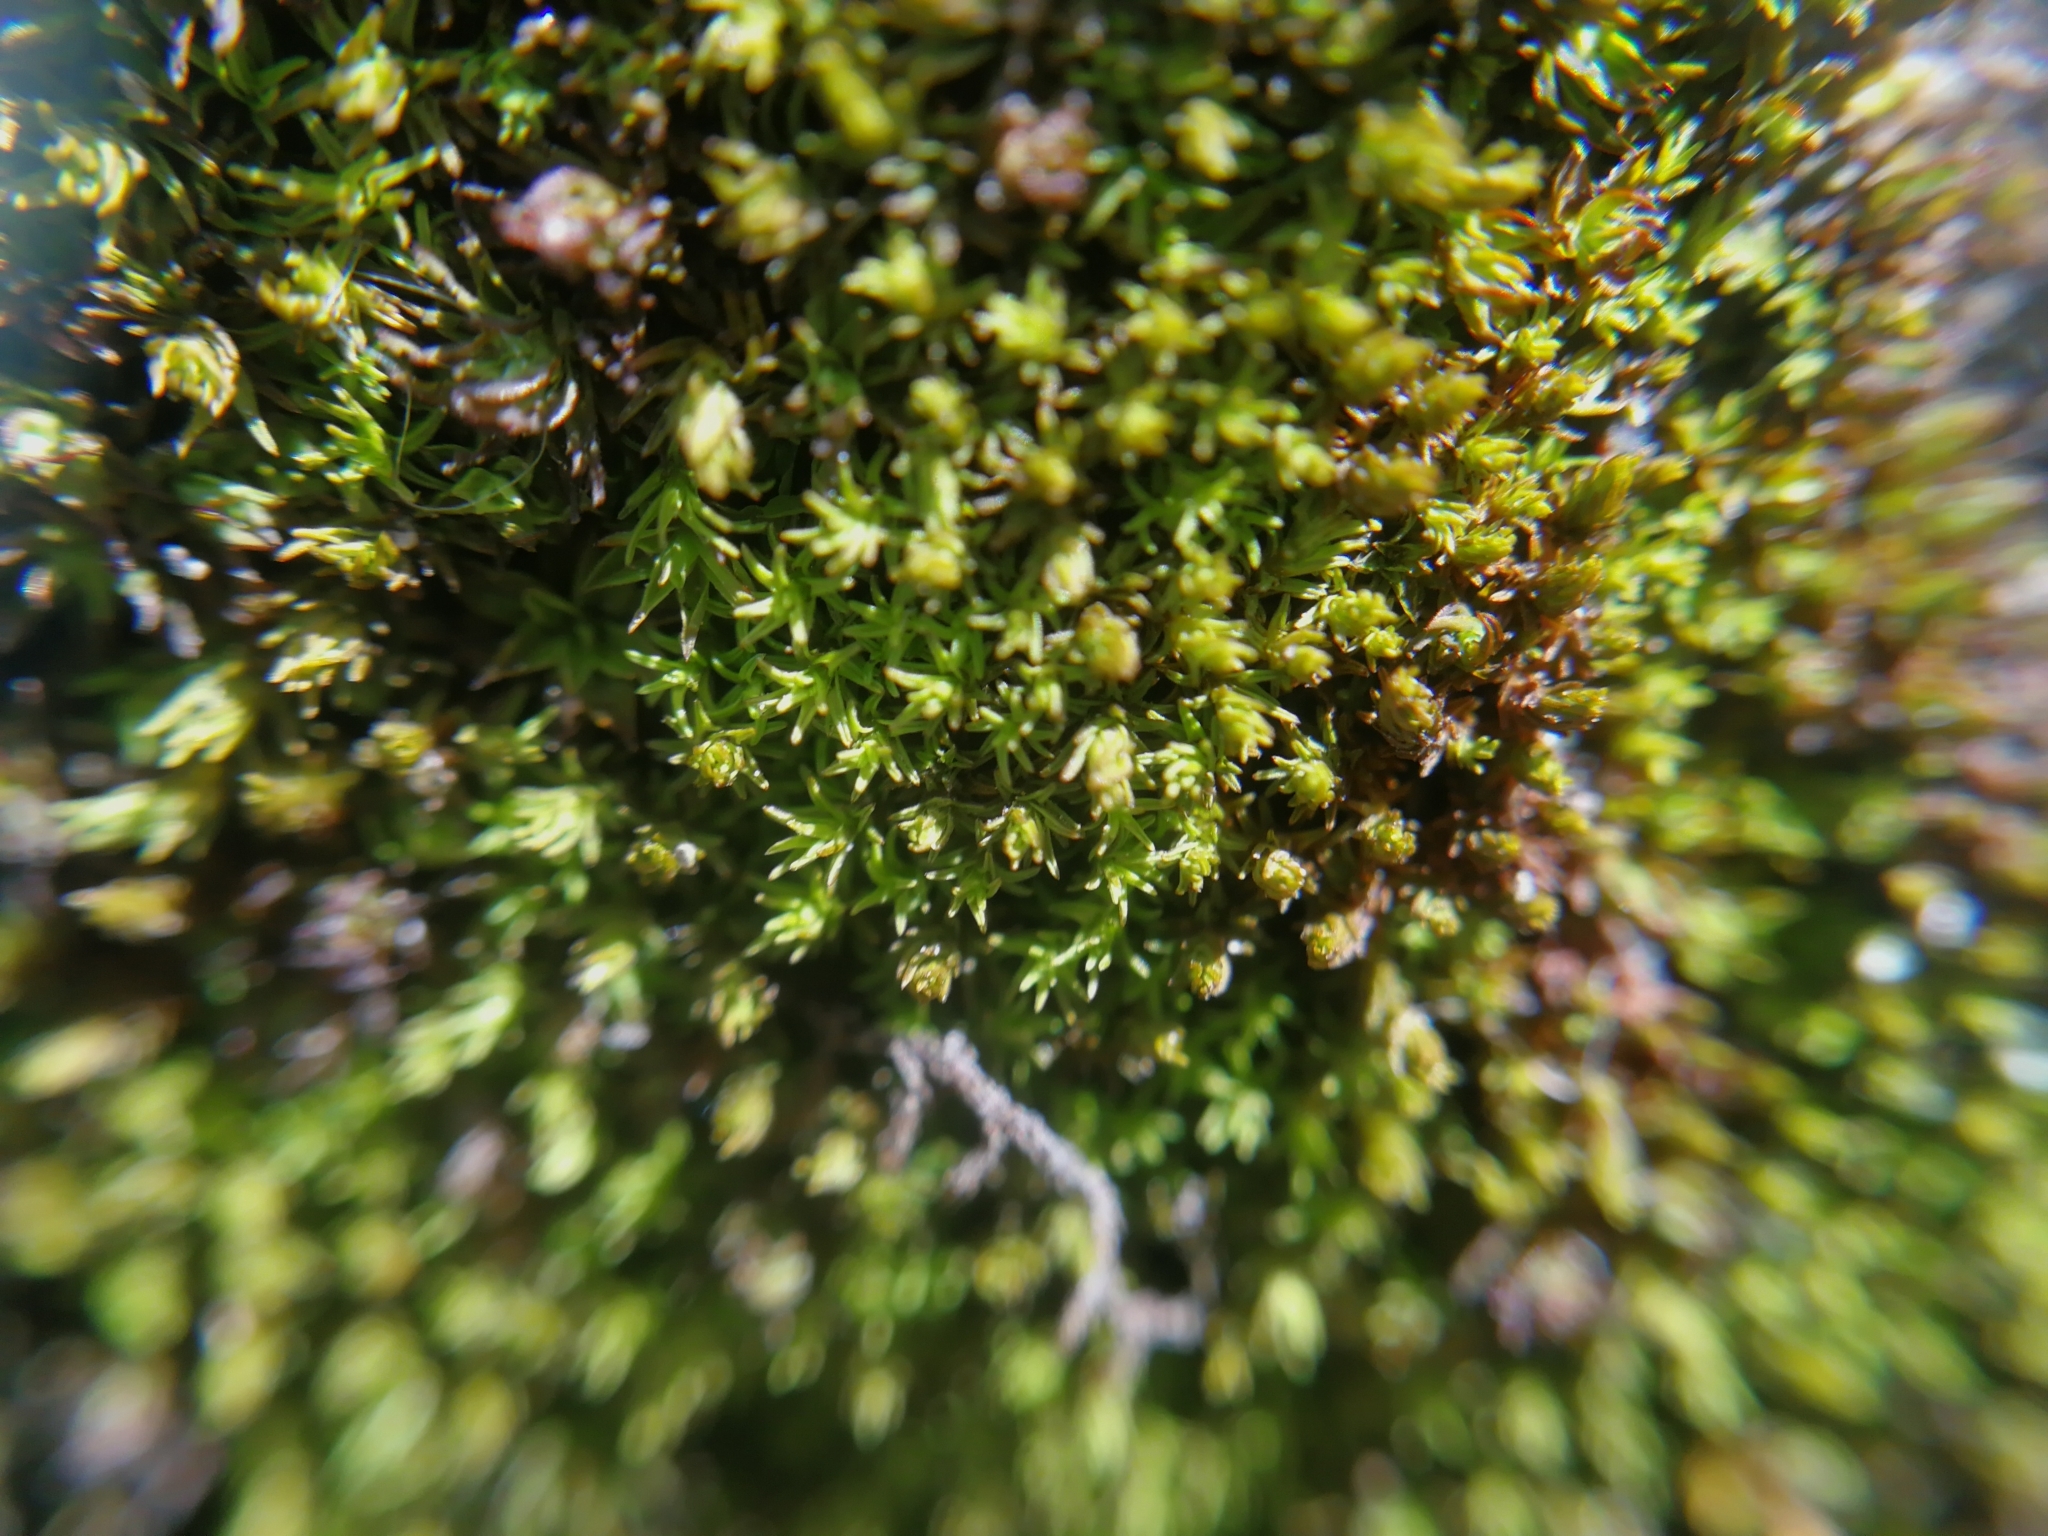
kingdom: Plantae
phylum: Bryophyta
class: Bryopsida
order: Orthotrichales
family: Orthotrichaceae
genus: Ulota
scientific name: Ulota crispa
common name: Crisped pincushion moss
